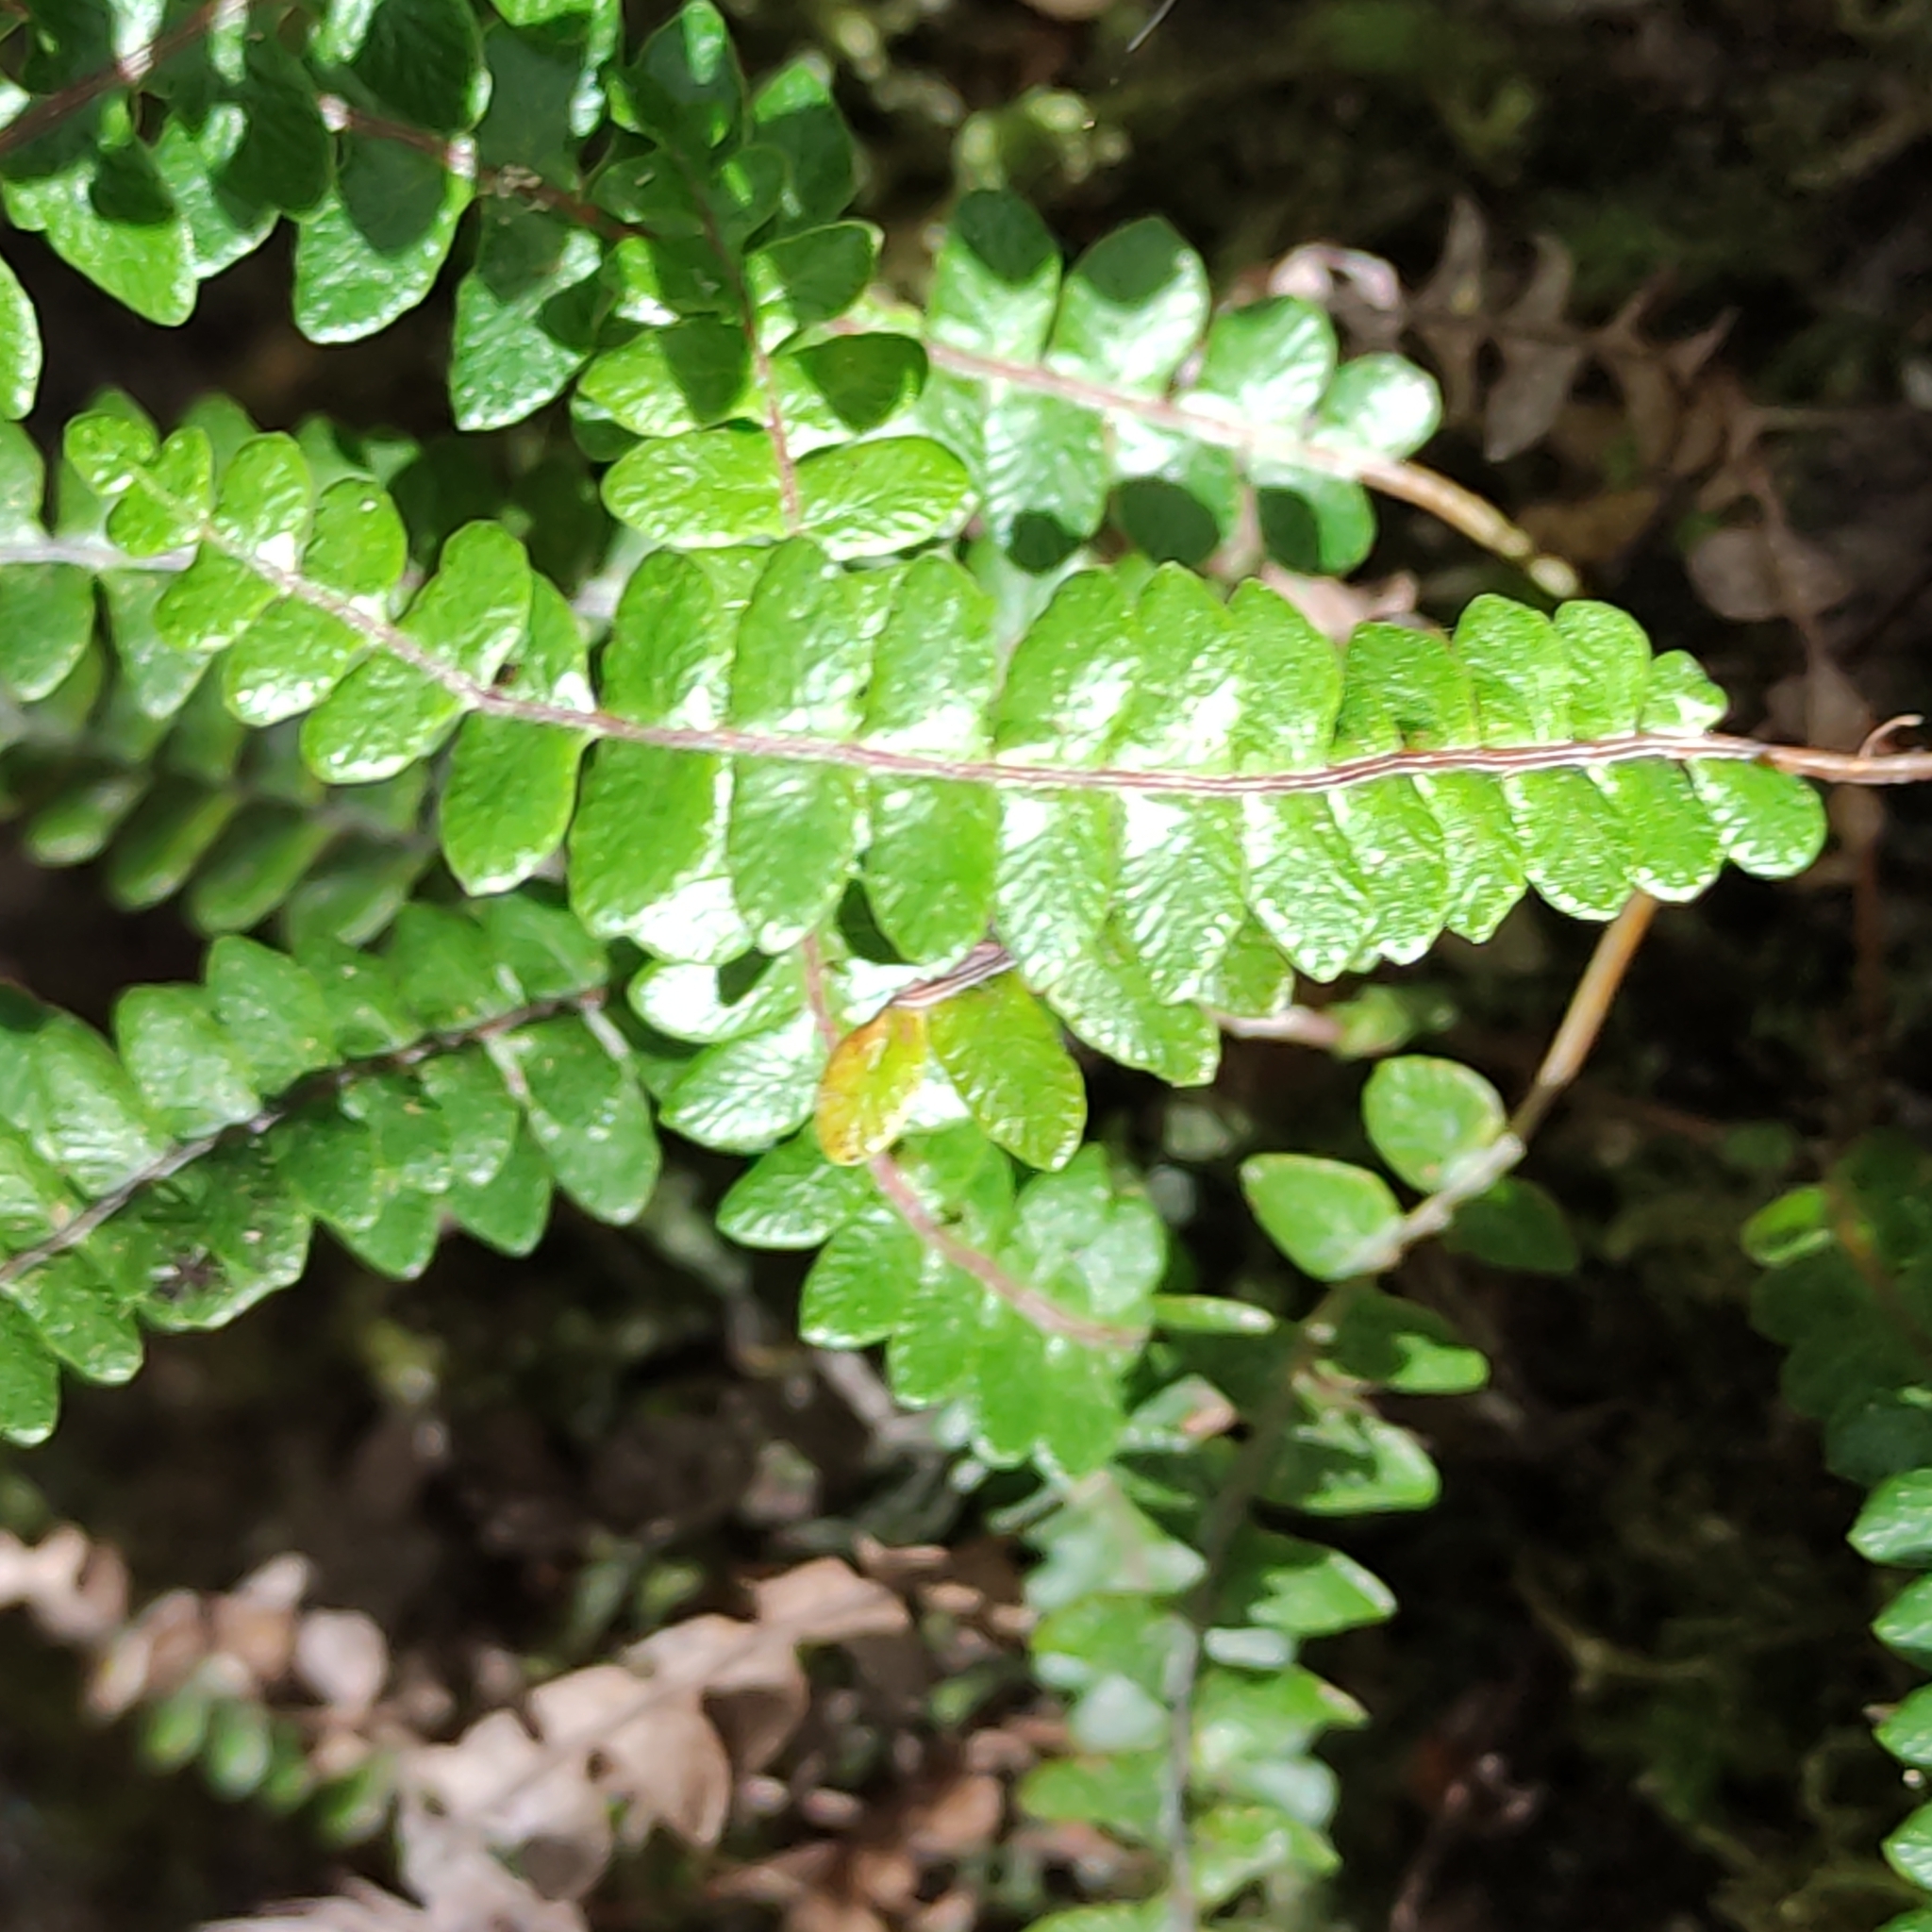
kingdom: Plantae
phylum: Tracheophyta
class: Polypodiopsida
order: Polypodiales
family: Blechnaceae
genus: Austroblechnum
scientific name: Austroblechnum penna-marina
